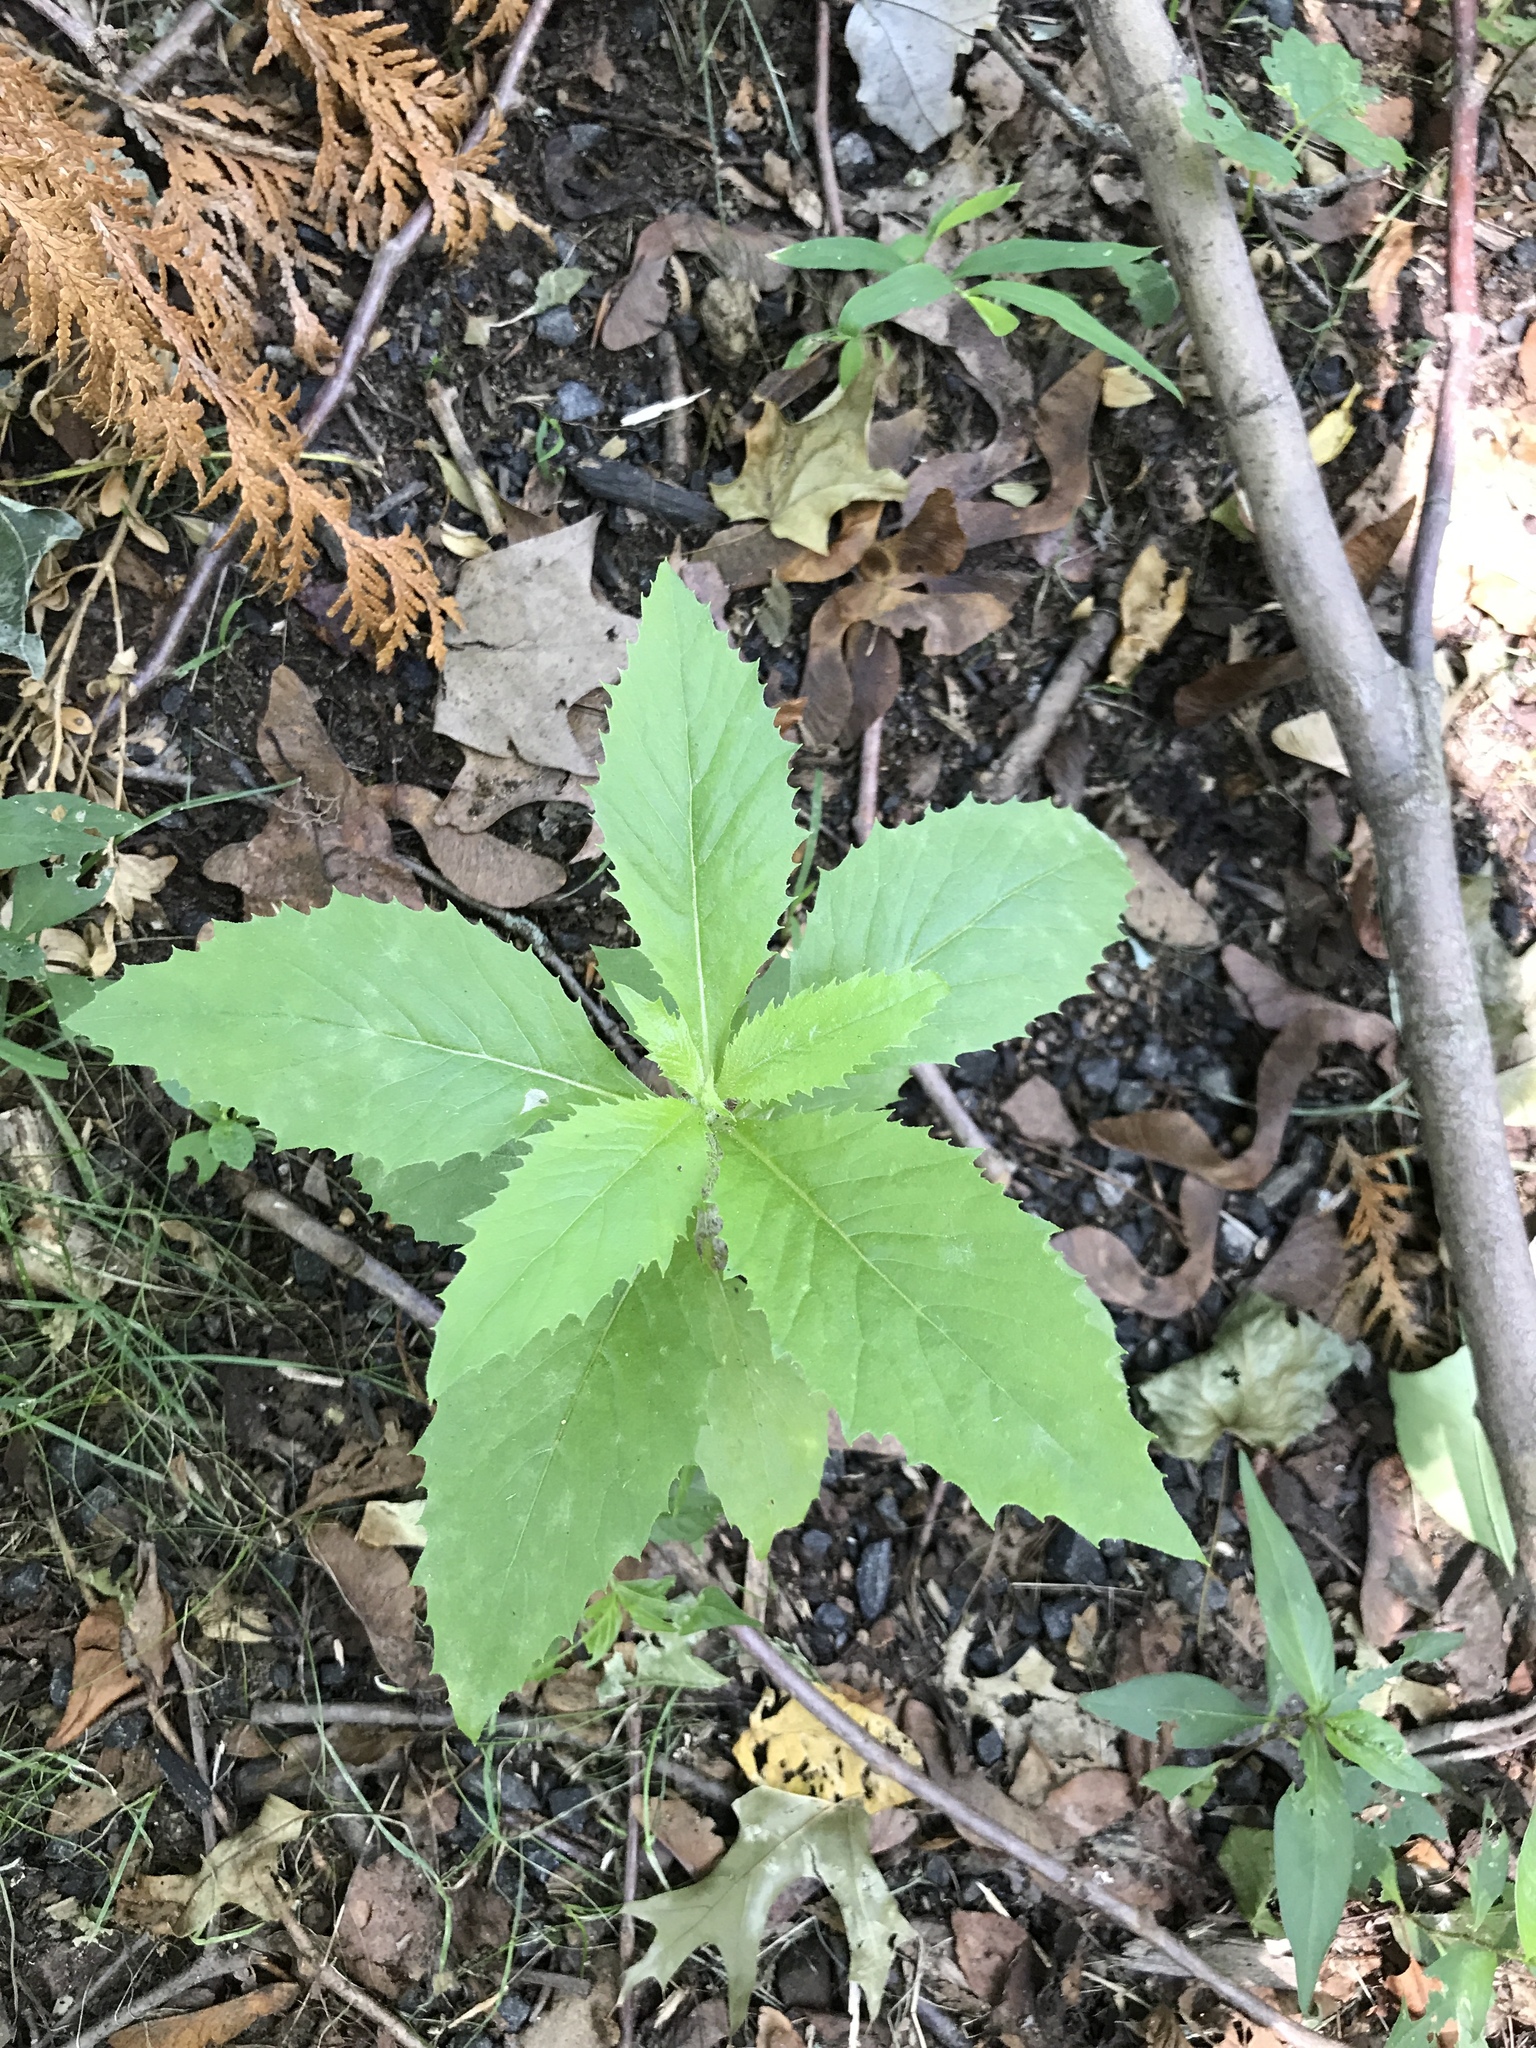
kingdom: Plantae
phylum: Tracheophyta
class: Magnoliopsida
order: Asterales
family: Asteraceae
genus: Erechtites
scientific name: Erechtites hieraciifolius
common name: American burnweed
